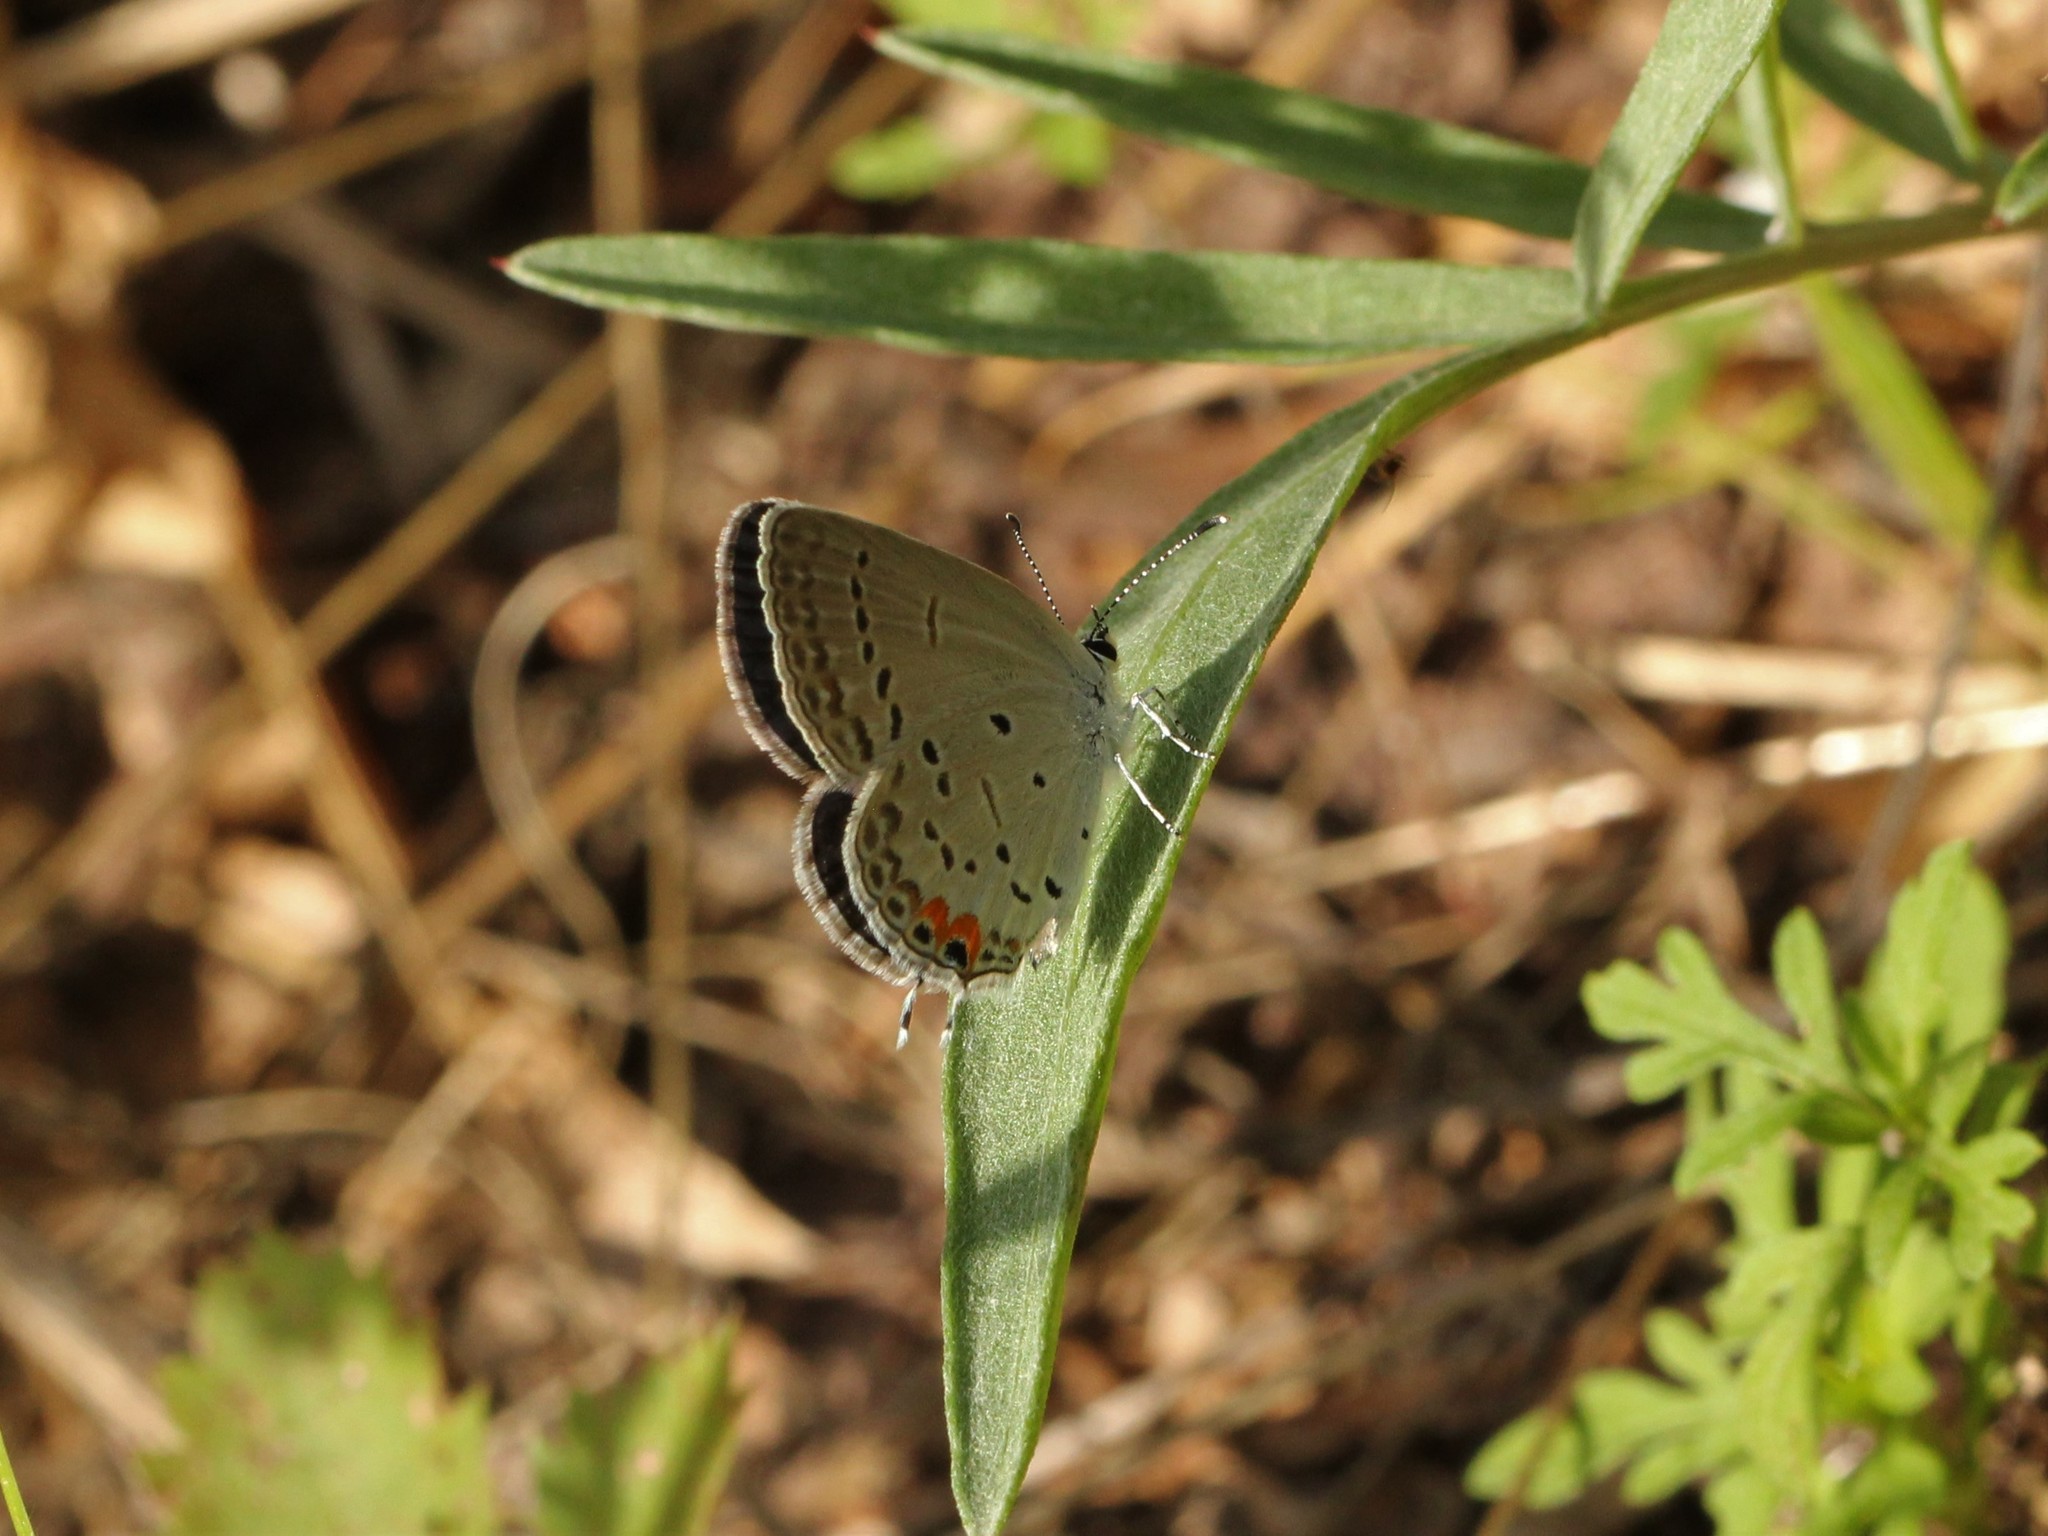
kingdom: Animalia
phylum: Arthropoda
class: Insecta
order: Lepidoptera
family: Lycaenidae
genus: Elkalyce
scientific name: Elkalyce comyntas
